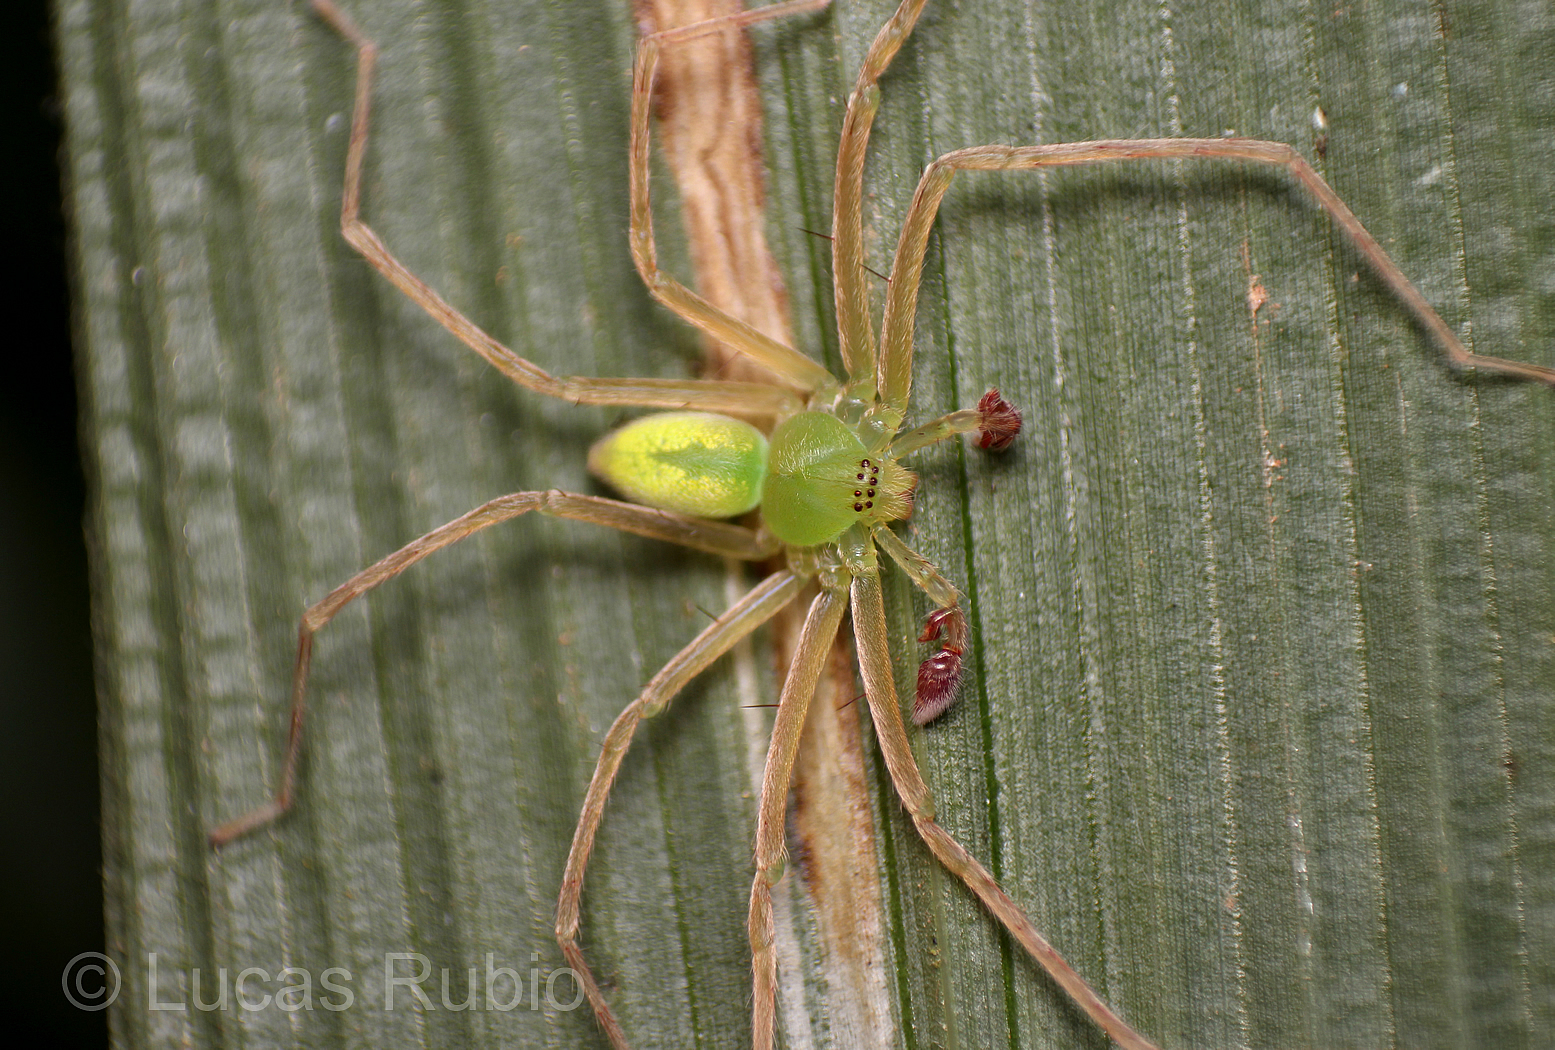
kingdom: Animalia
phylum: Arthropoda
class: Arachnida
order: Araneae
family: Sparassidae
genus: Caayguara
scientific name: Caayguara album
